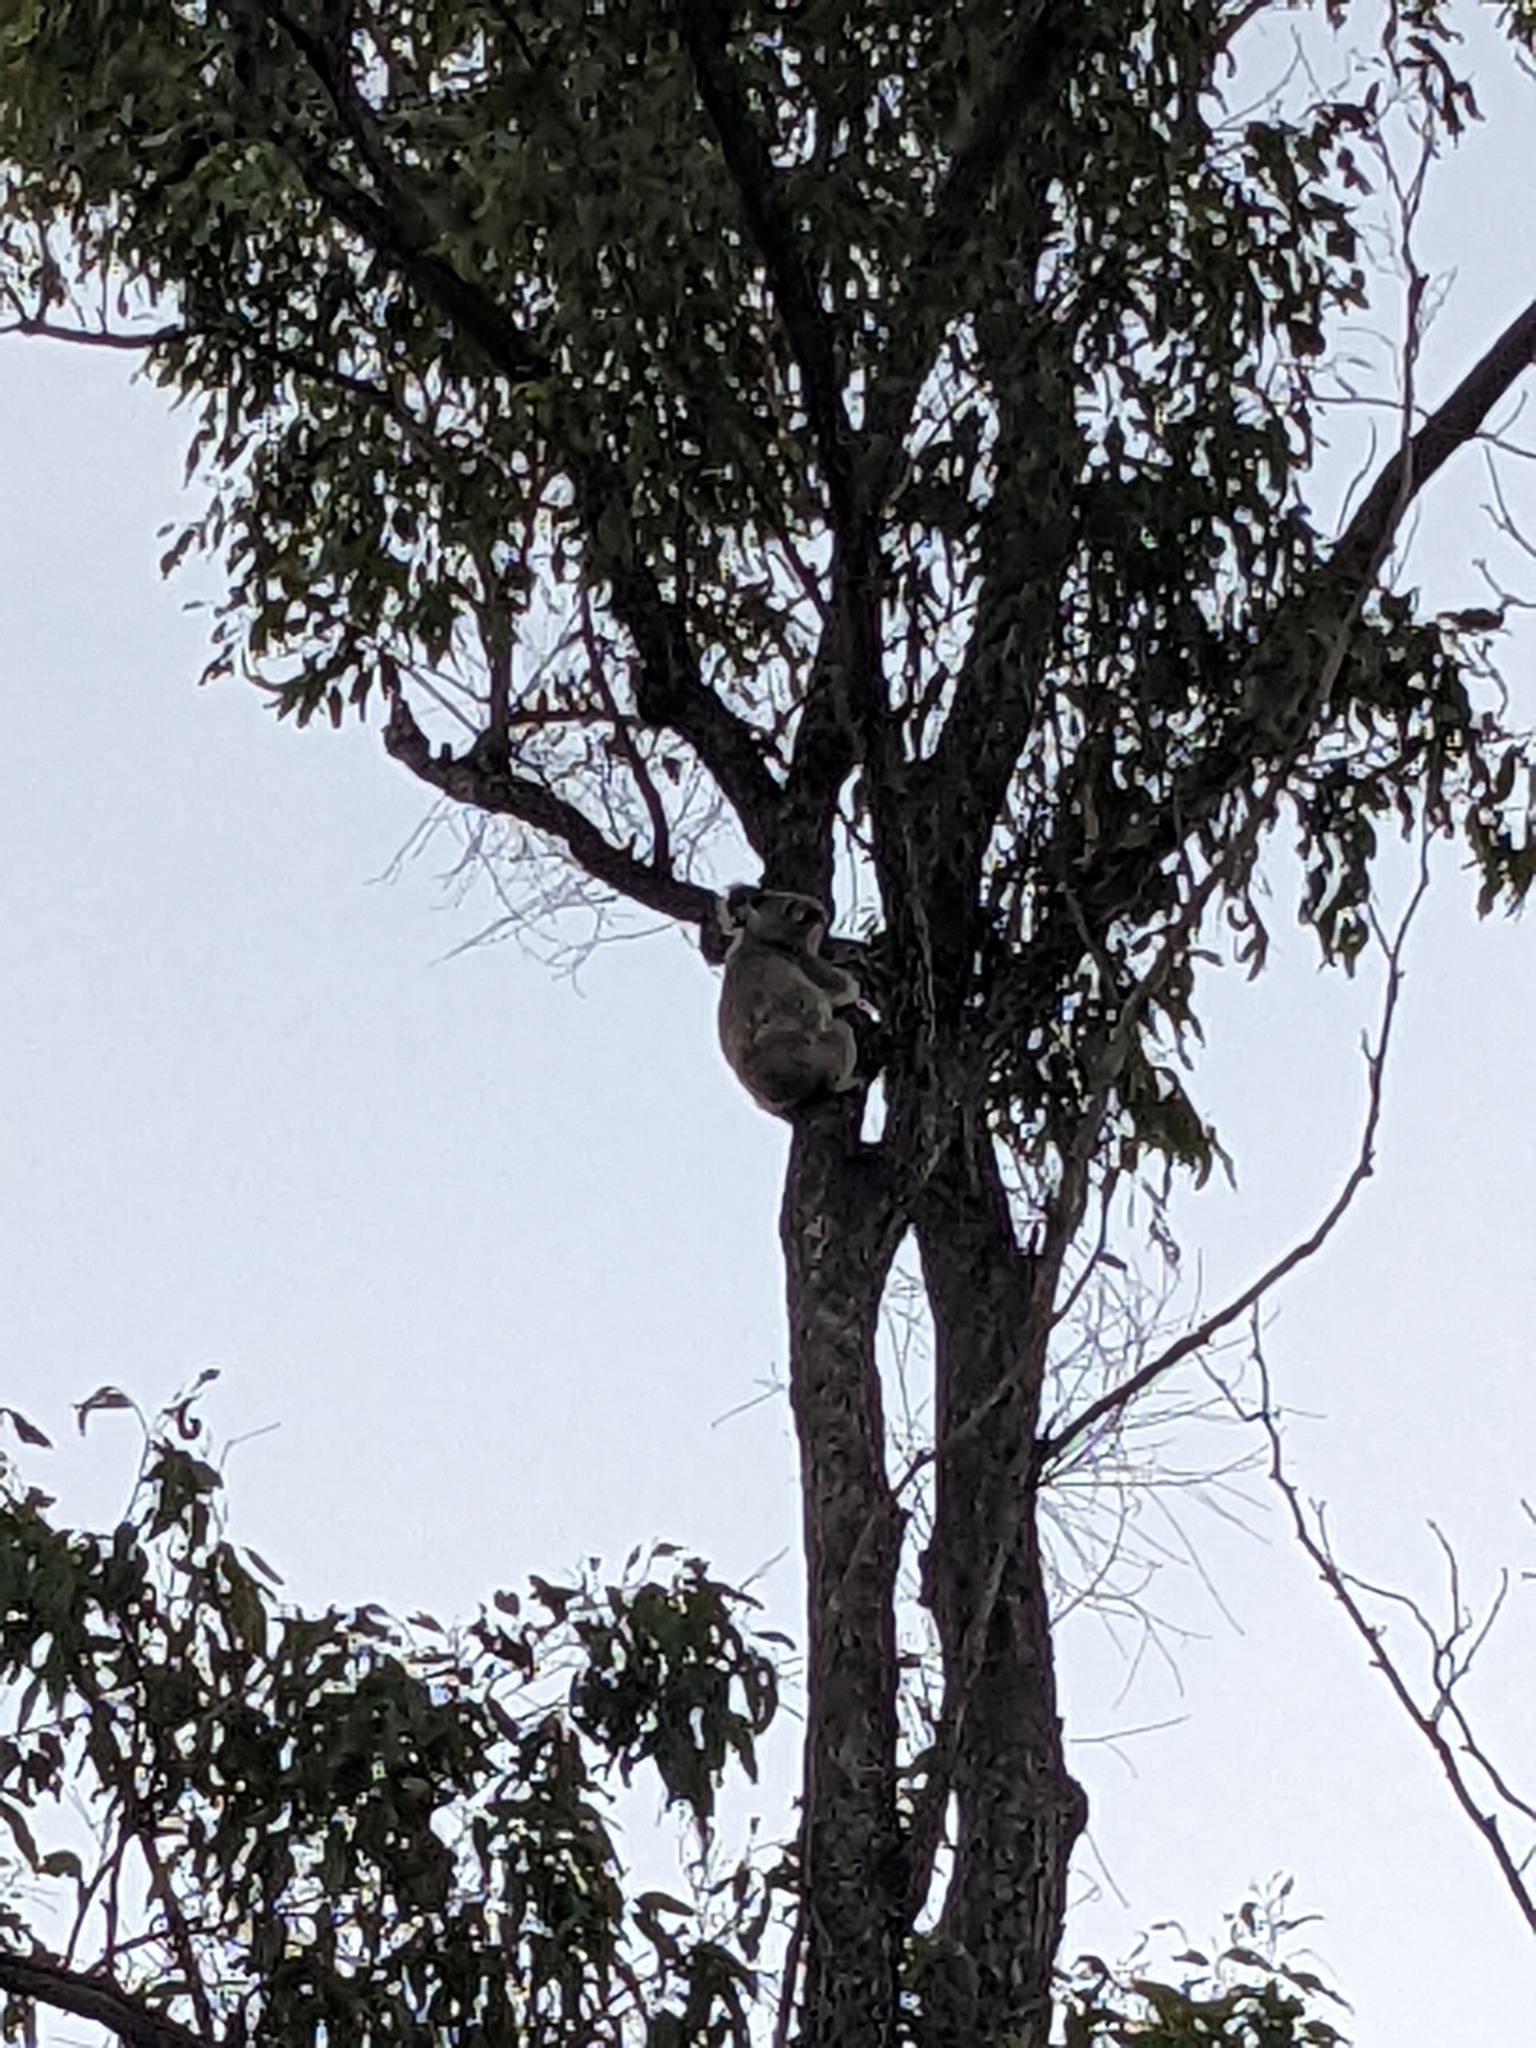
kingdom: Animalia
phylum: Chordata
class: Mammalia
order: Diprotodontia
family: Phascolarctidae
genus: Phascolarctos
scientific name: Phascolarctos cinereus
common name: Koala
